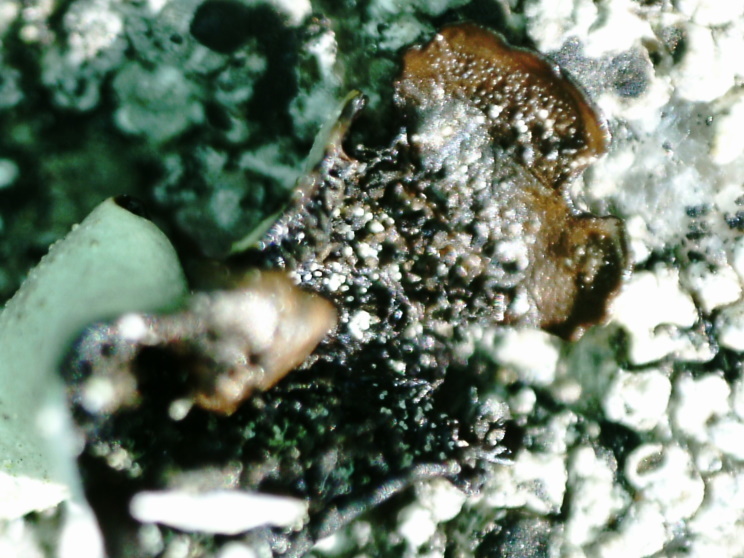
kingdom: Fungi
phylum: Ascomycota
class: Lecanoromycetes
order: Lecanorales
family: Parmeliaceae
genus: Parmelina
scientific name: Parmelina tiliacea
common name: Linden shield lichen
